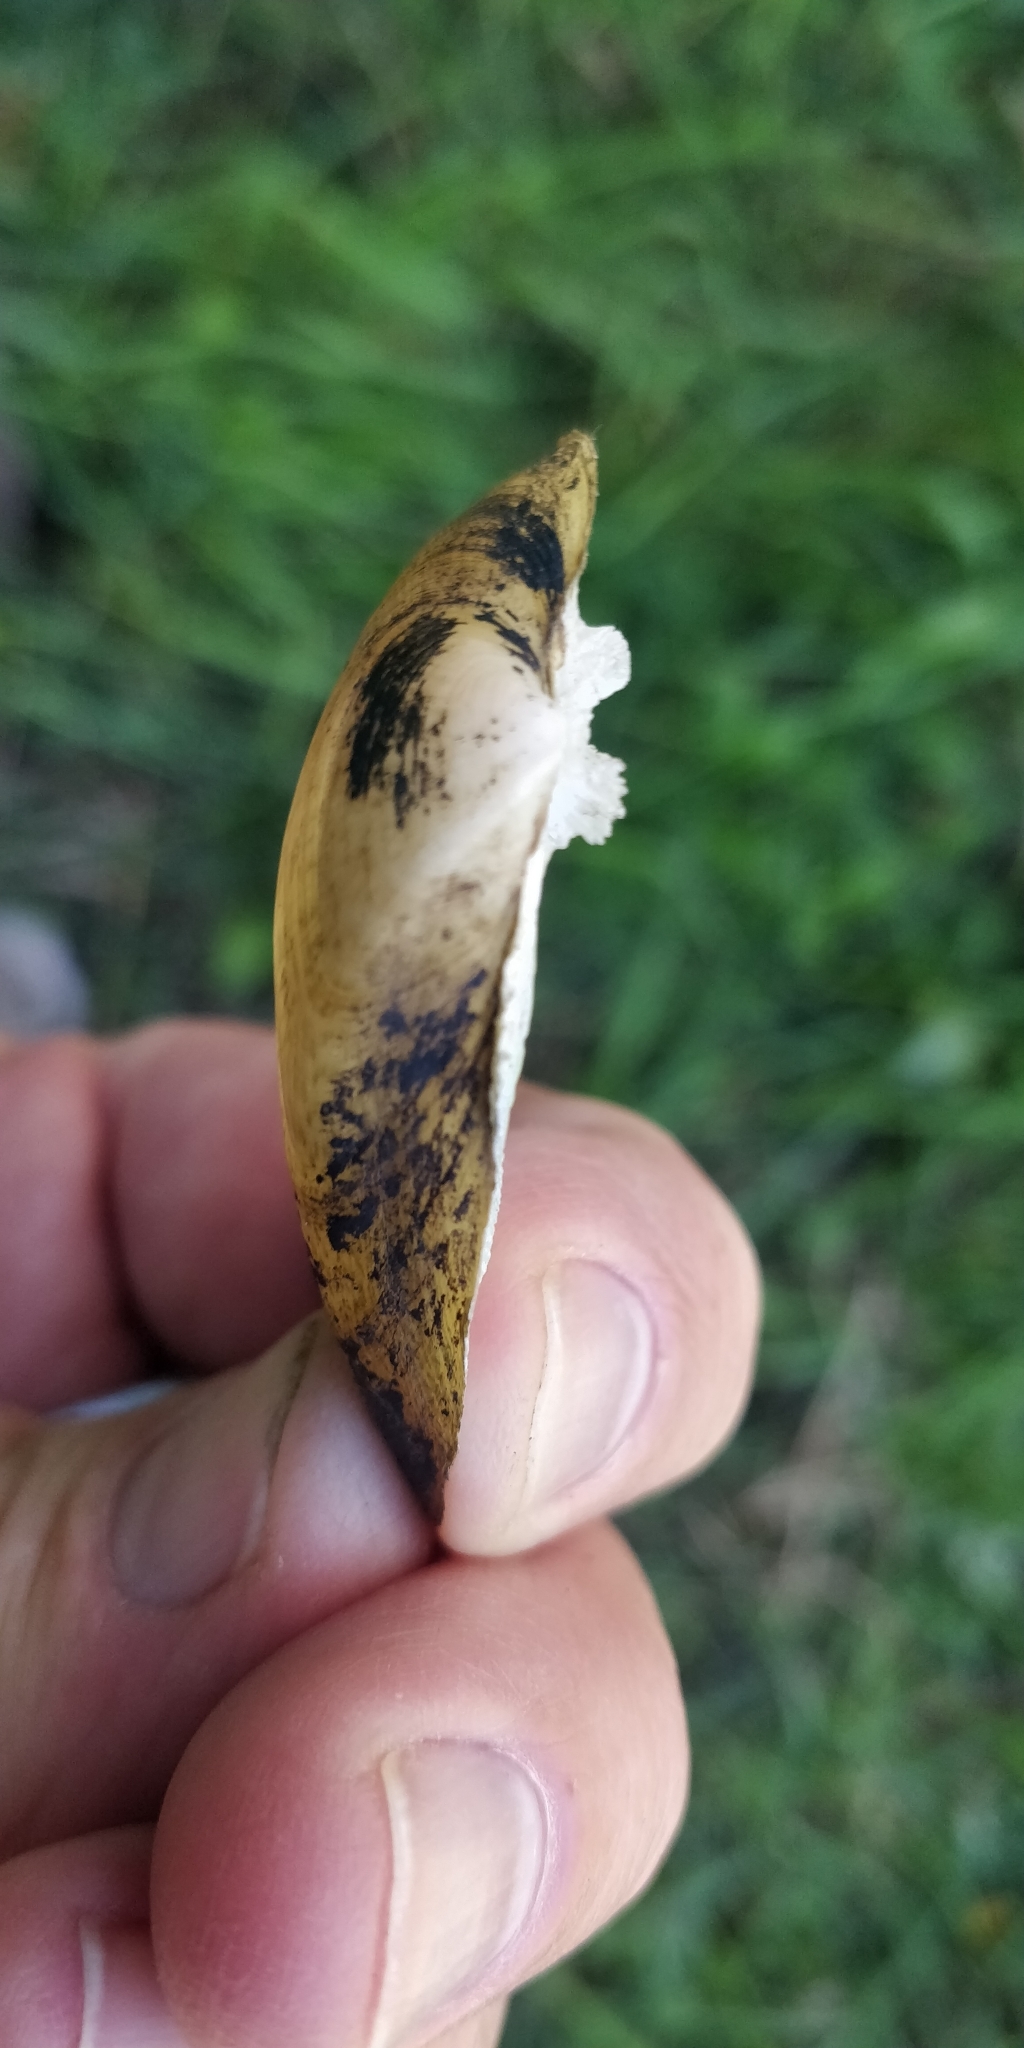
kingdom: Animalia
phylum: Mollusca
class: Bivalvia
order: Unionida
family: Unionidae
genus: Truncilla
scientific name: Truncilla truncata
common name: Deertoe
